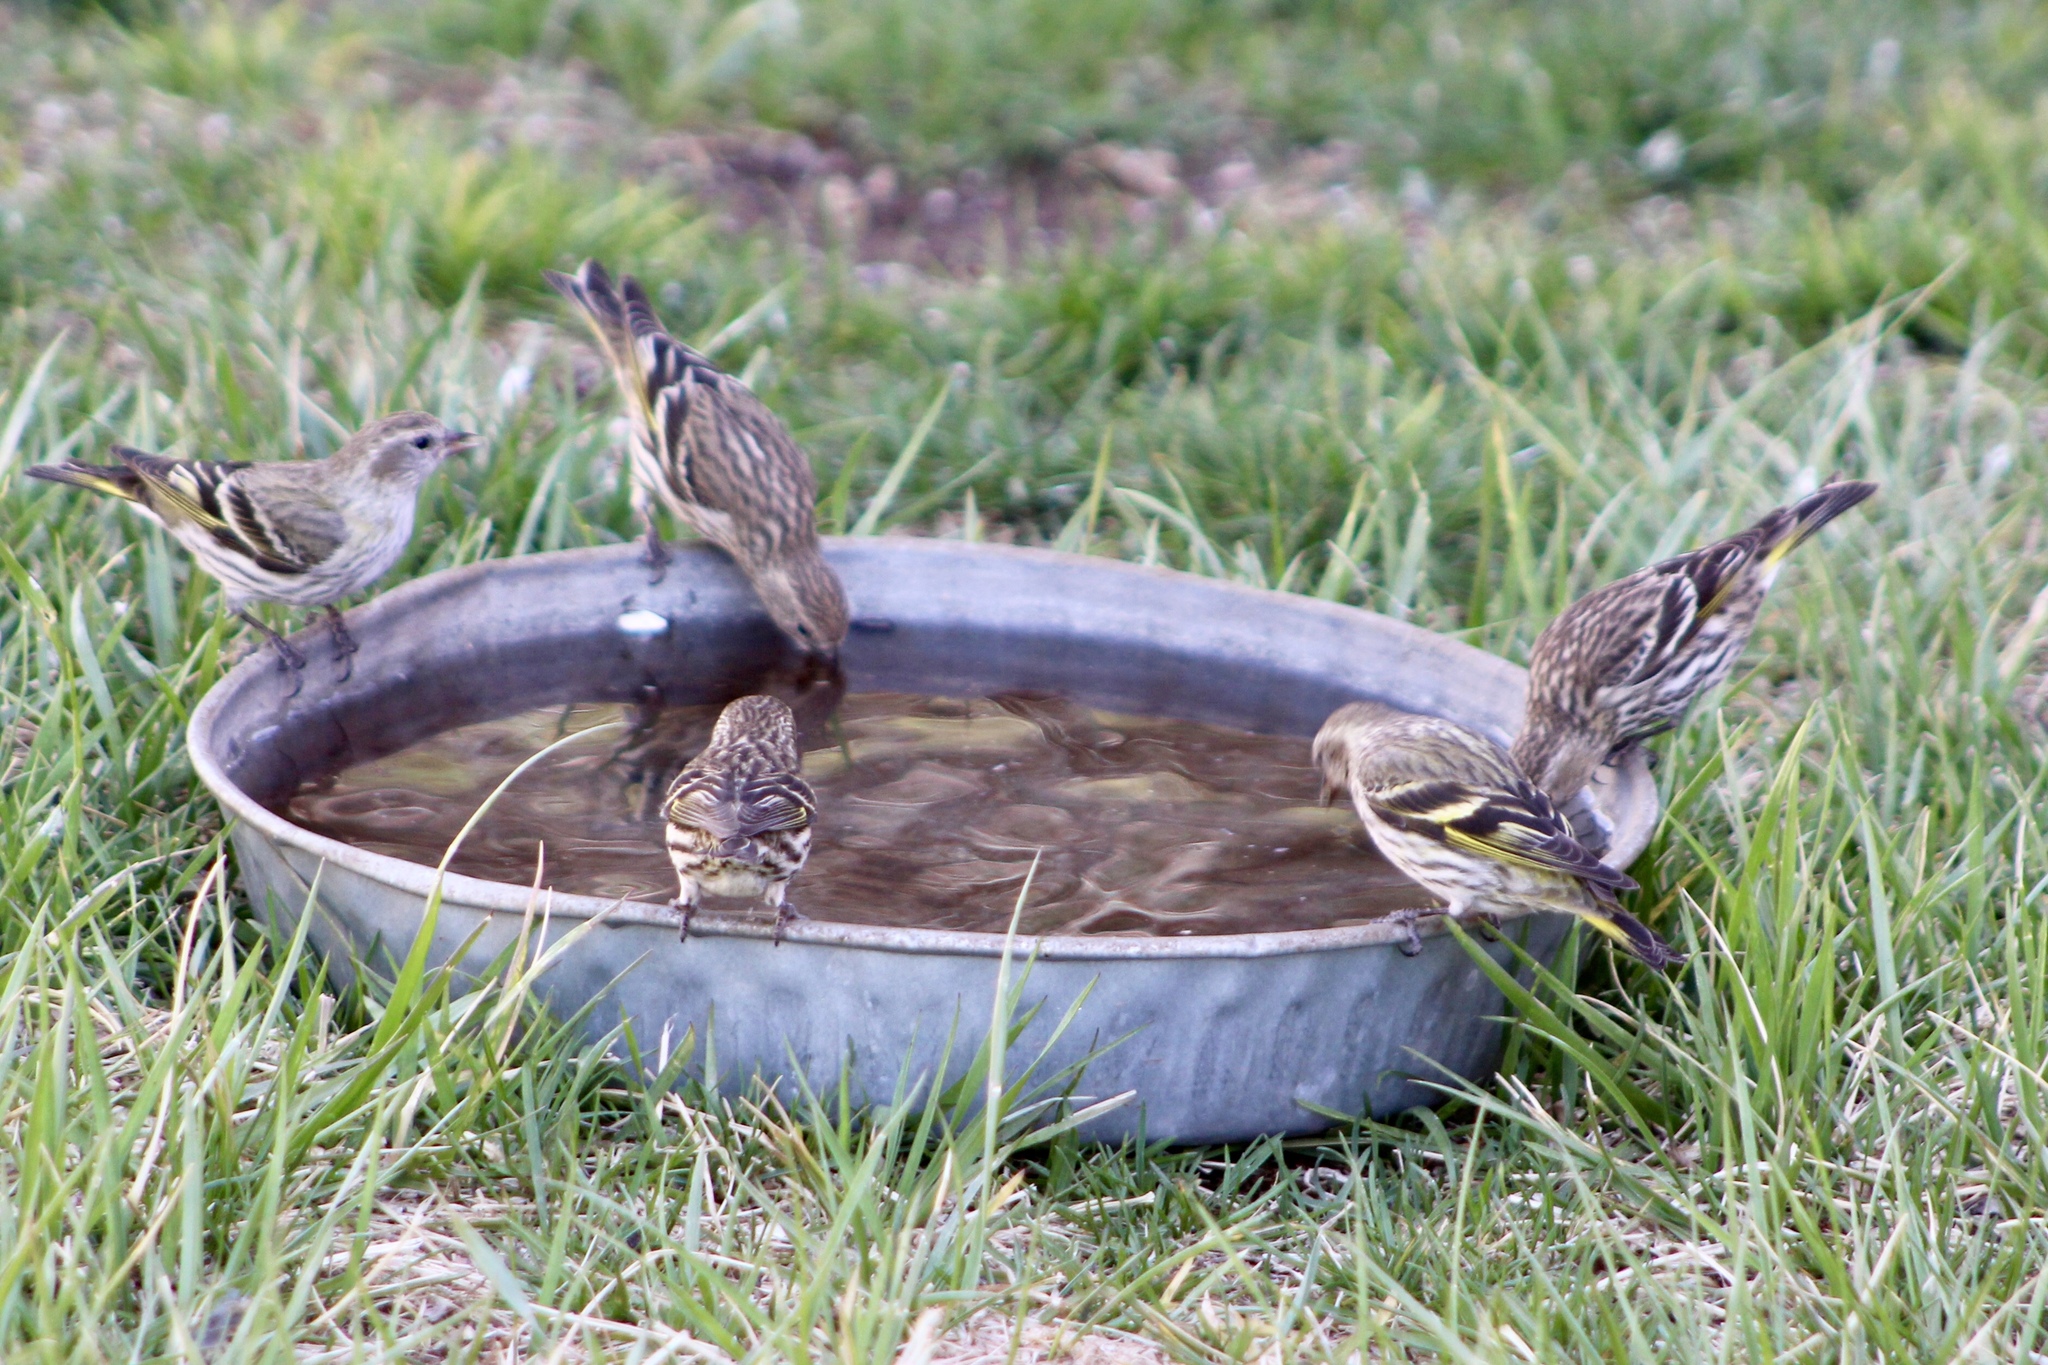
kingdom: Animalia
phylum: Chordata
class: Aves
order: Passeriformes
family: Fringillidae
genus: Spinus
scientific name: Spinus pinus
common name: Pine siskin
